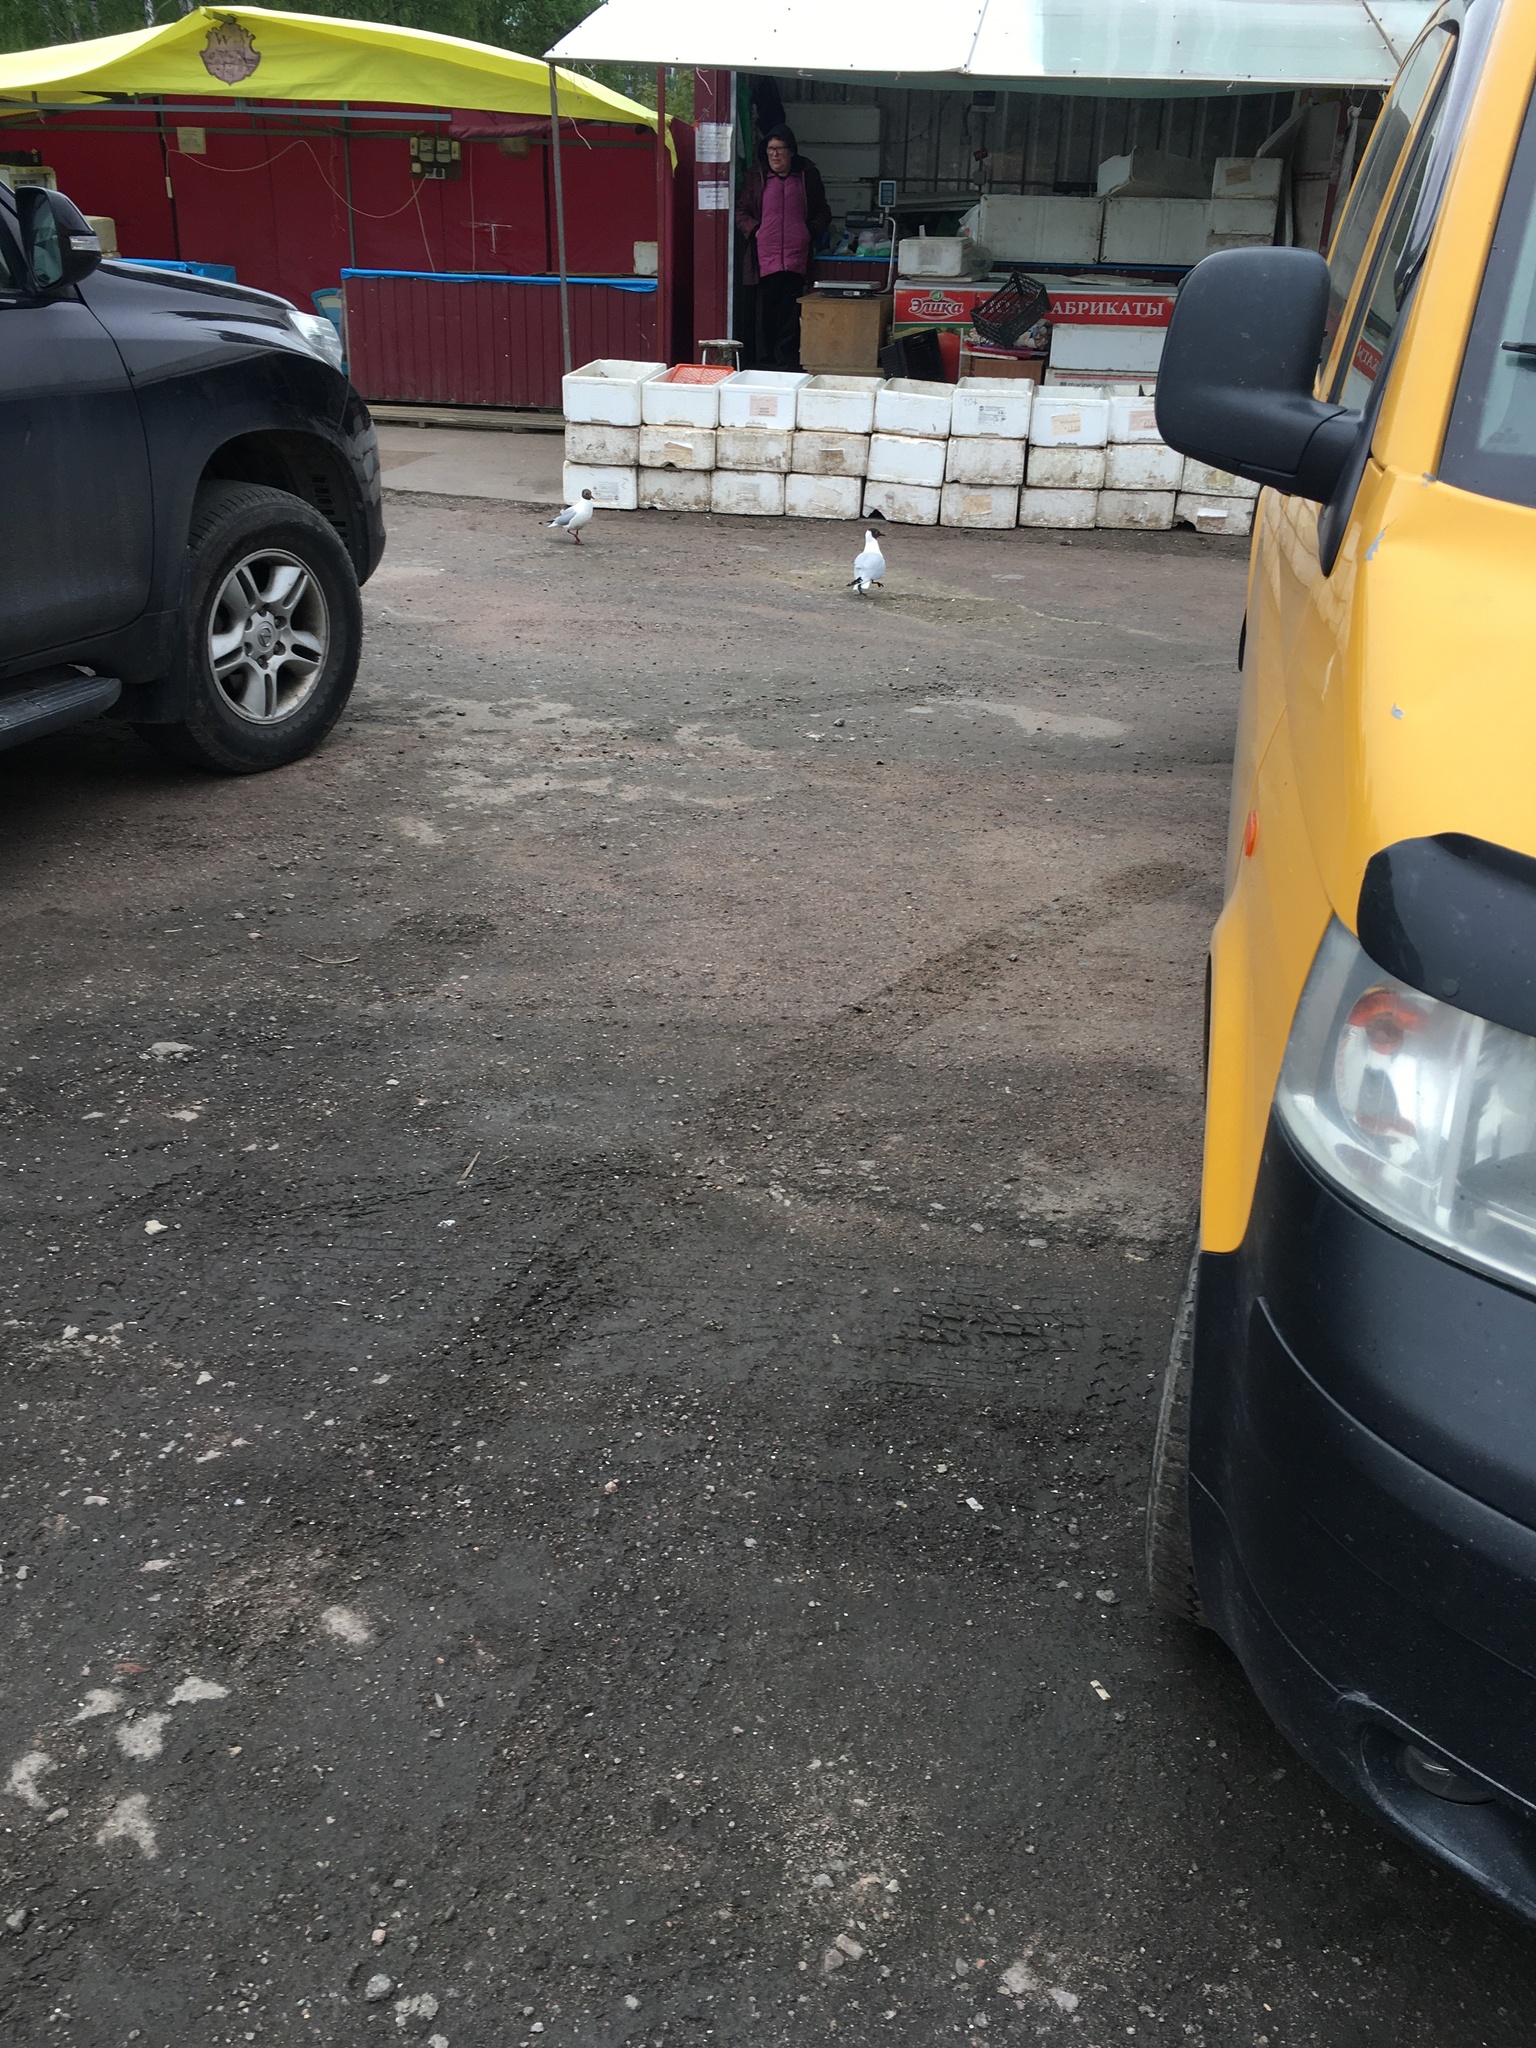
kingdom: Animalia
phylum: Chordata
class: Aves
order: Charadriiformes
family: Laridae
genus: Chroicocephalus
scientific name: Chroicocephalus ridibundus
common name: Black-headed gull
